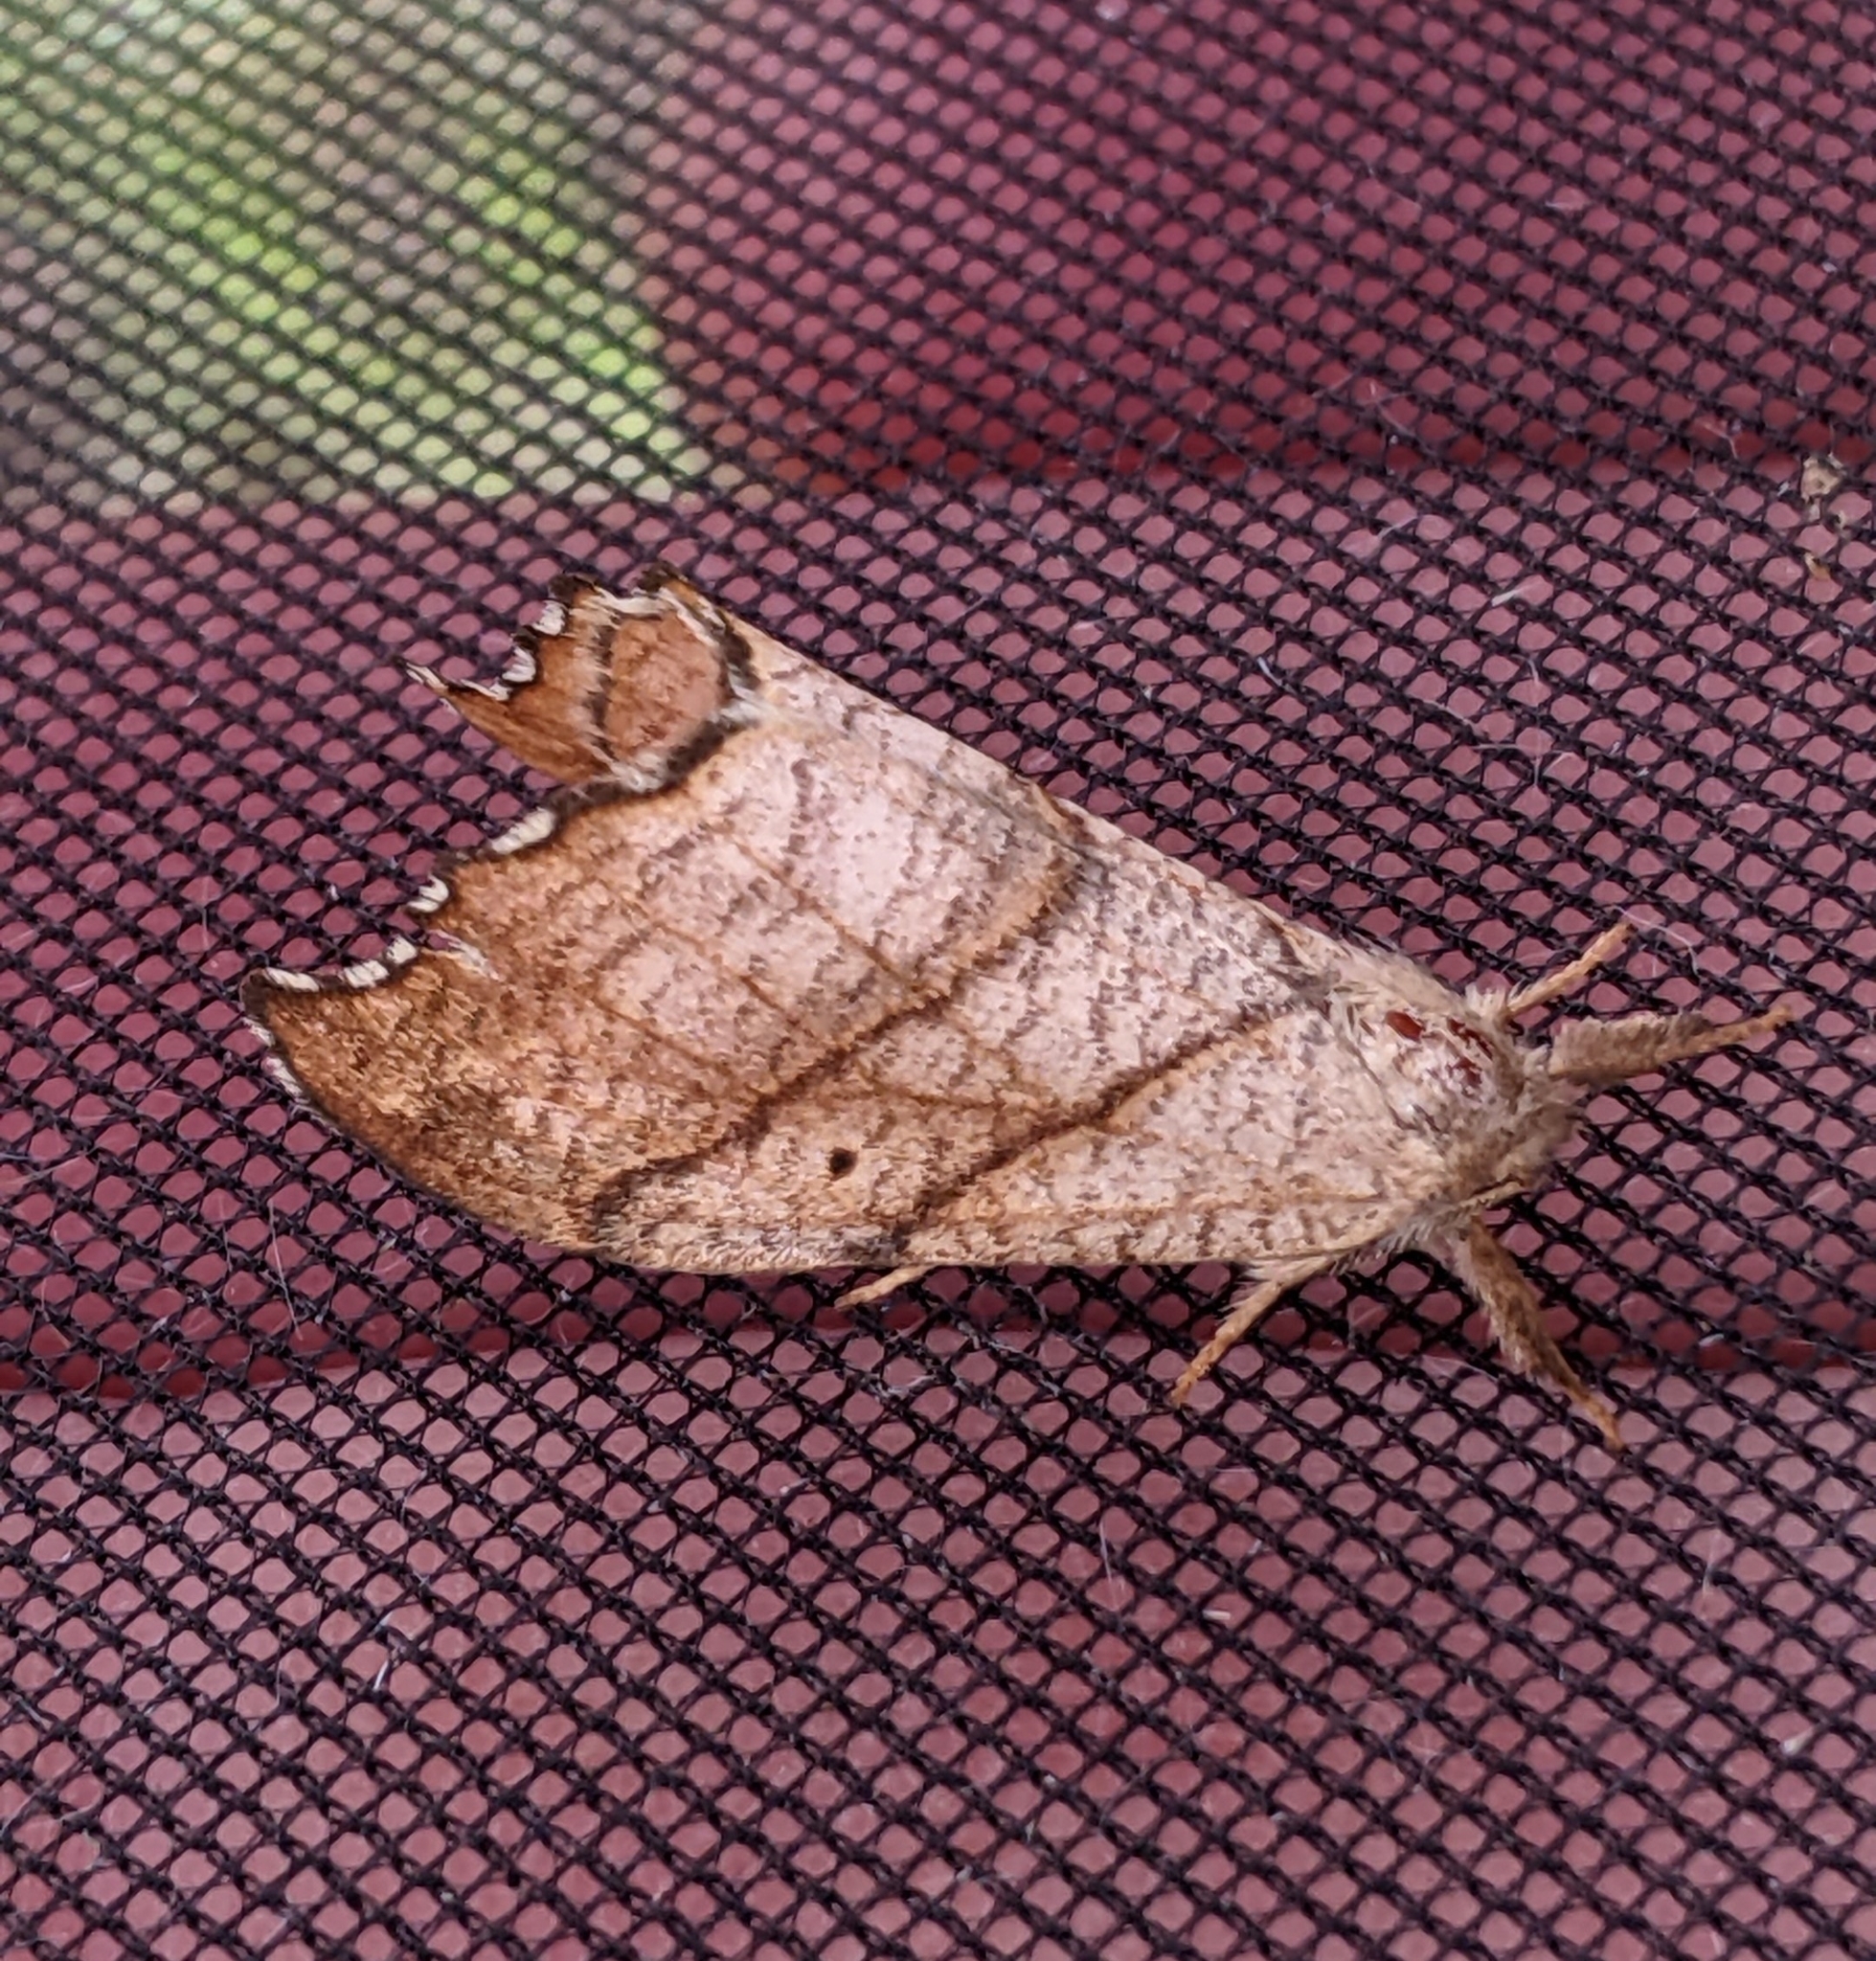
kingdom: Animalia
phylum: Arthropoda
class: Insecta
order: Lepidoptera
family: Drepanidae
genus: Falcaria
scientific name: Falcaria bilineata
